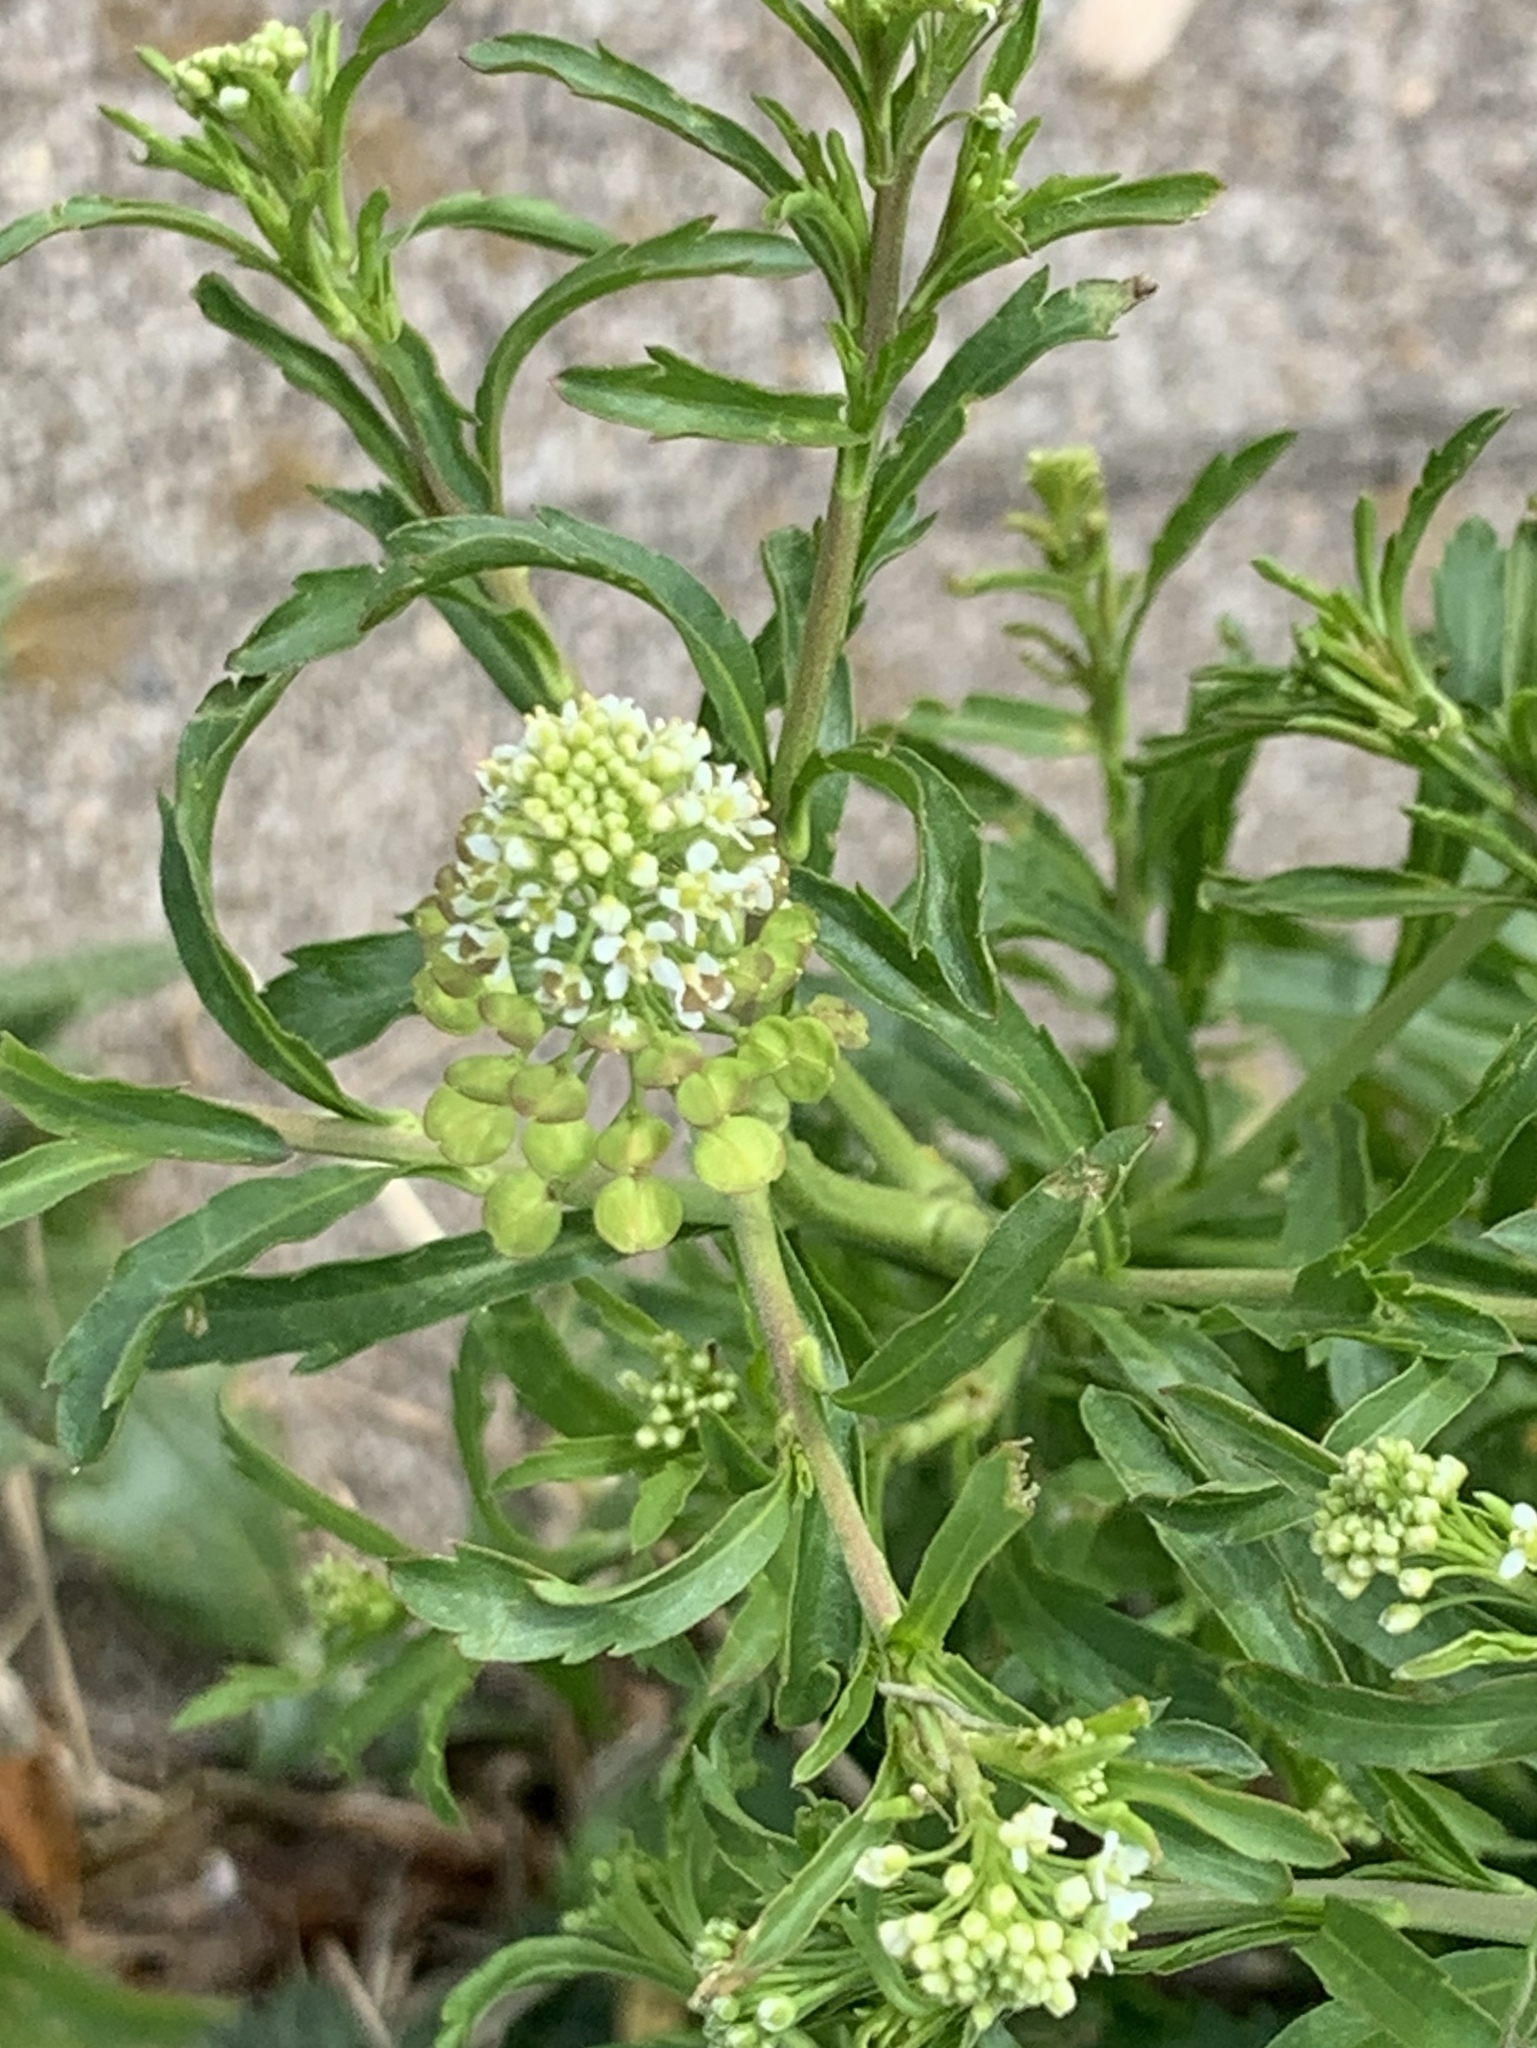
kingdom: Plantae
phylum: Tracheophyta
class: Magnoliopsida
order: Brassicales
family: Brassicaceae
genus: Lepidium
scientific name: Lepidium virginicum
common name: Least pepperwort
